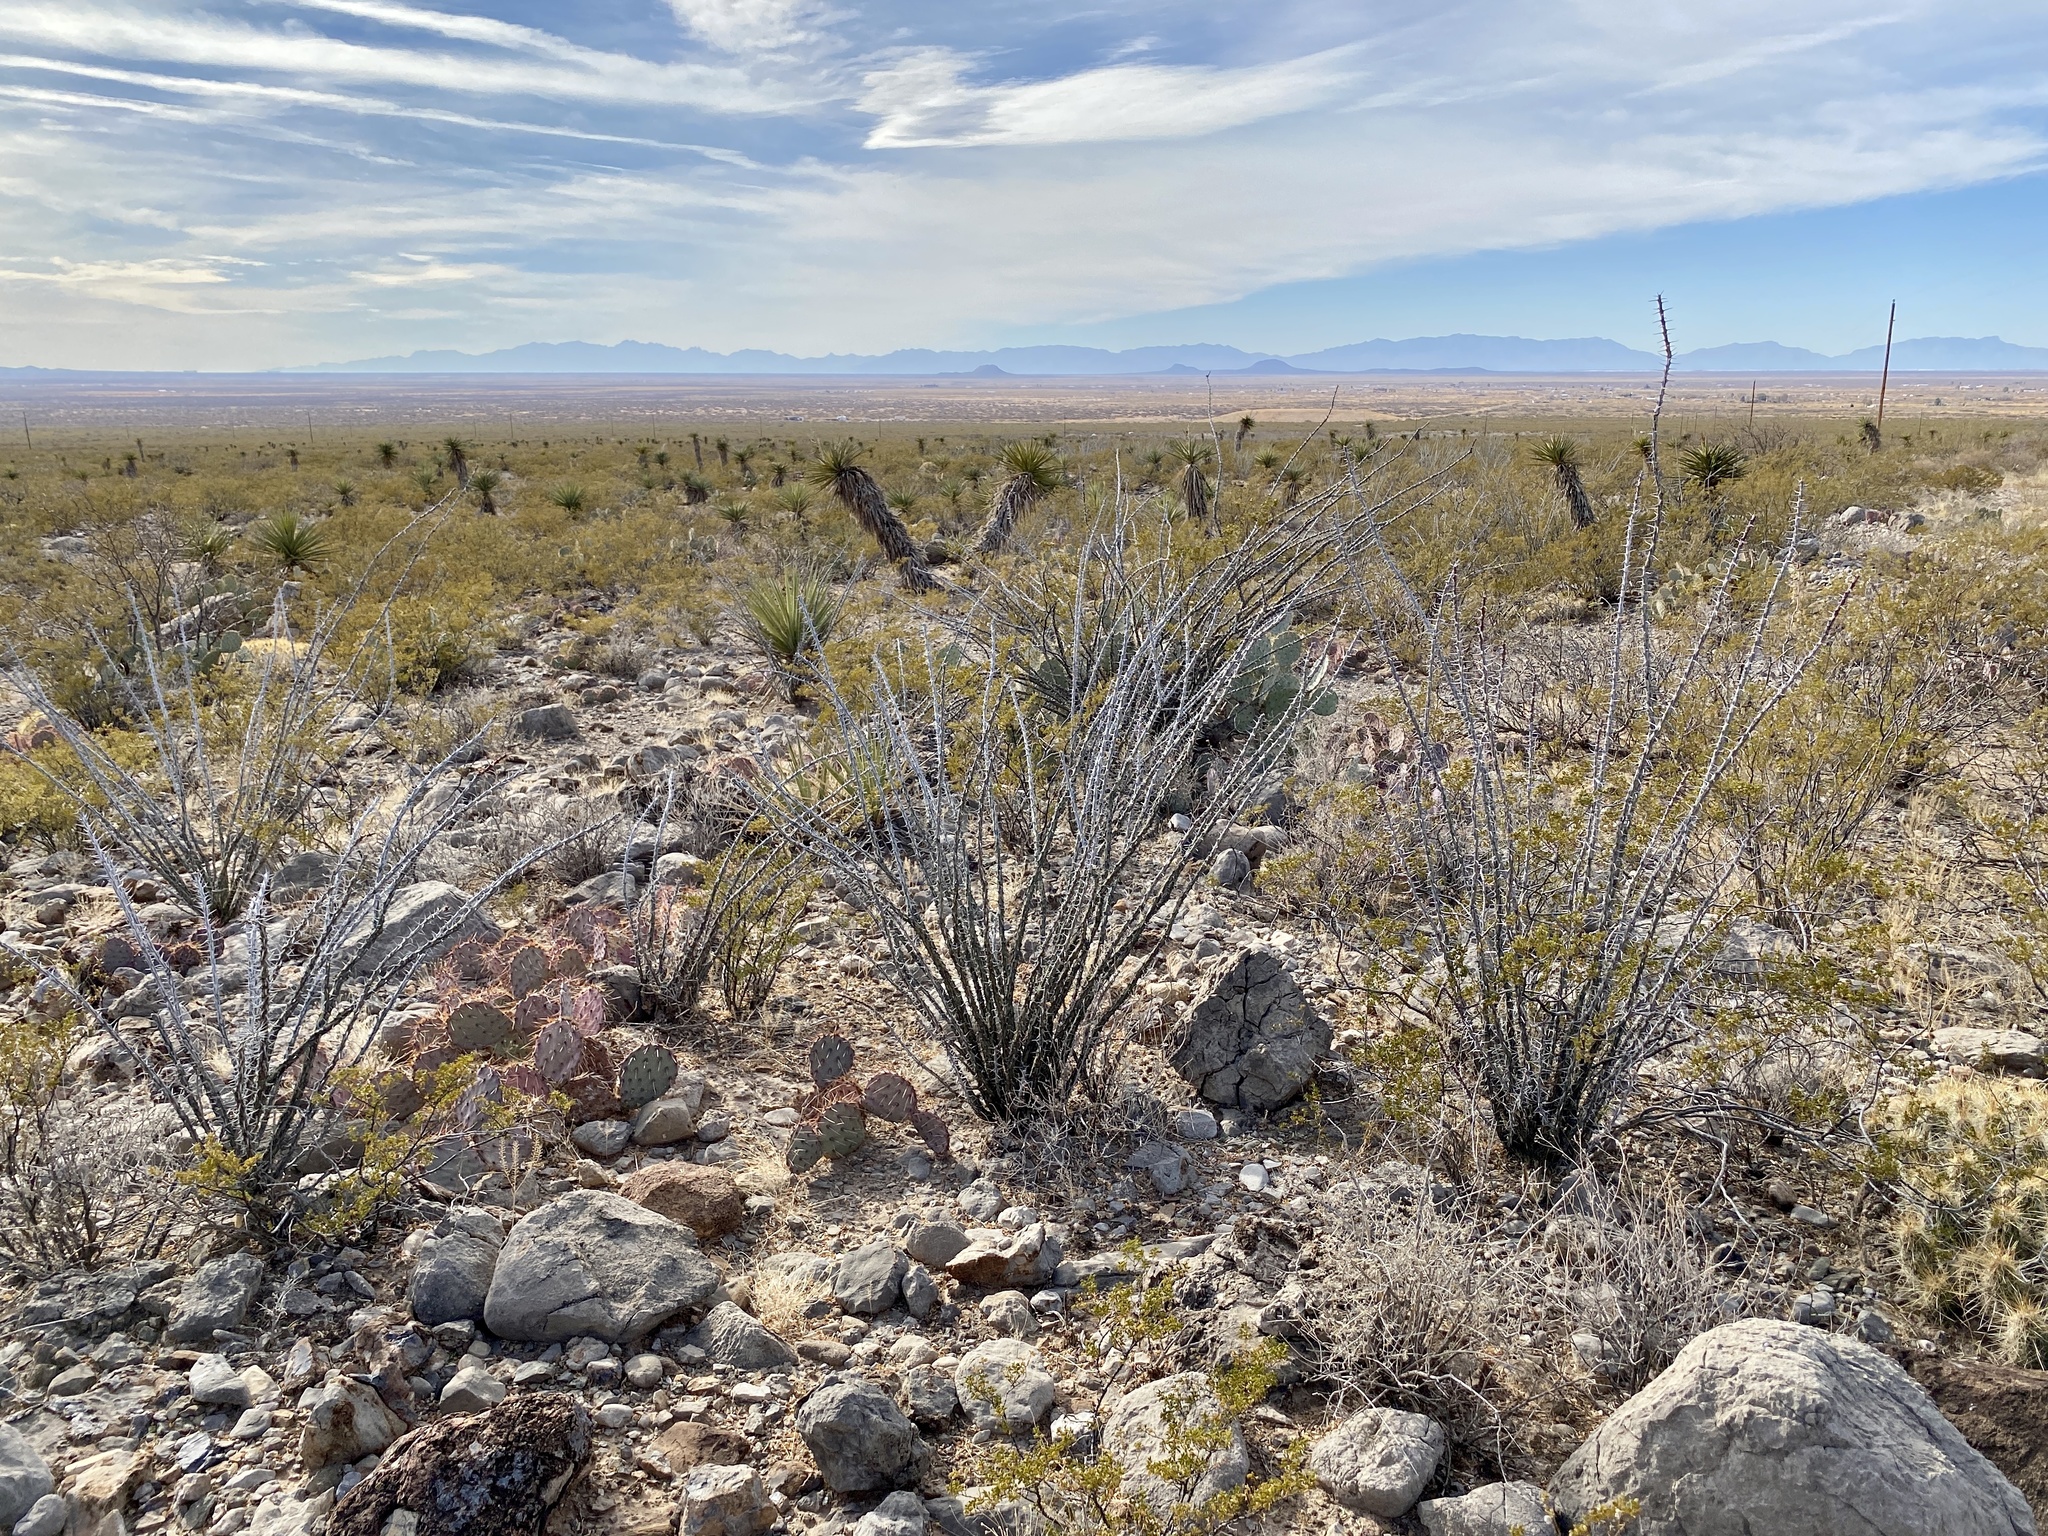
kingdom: Plantae
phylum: Tracheophyta
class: Magnoliopsida
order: Ericales
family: Fouquieriaceae
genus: Fouquieria
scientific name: Fouquieria splendens
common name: Vine-cactus
